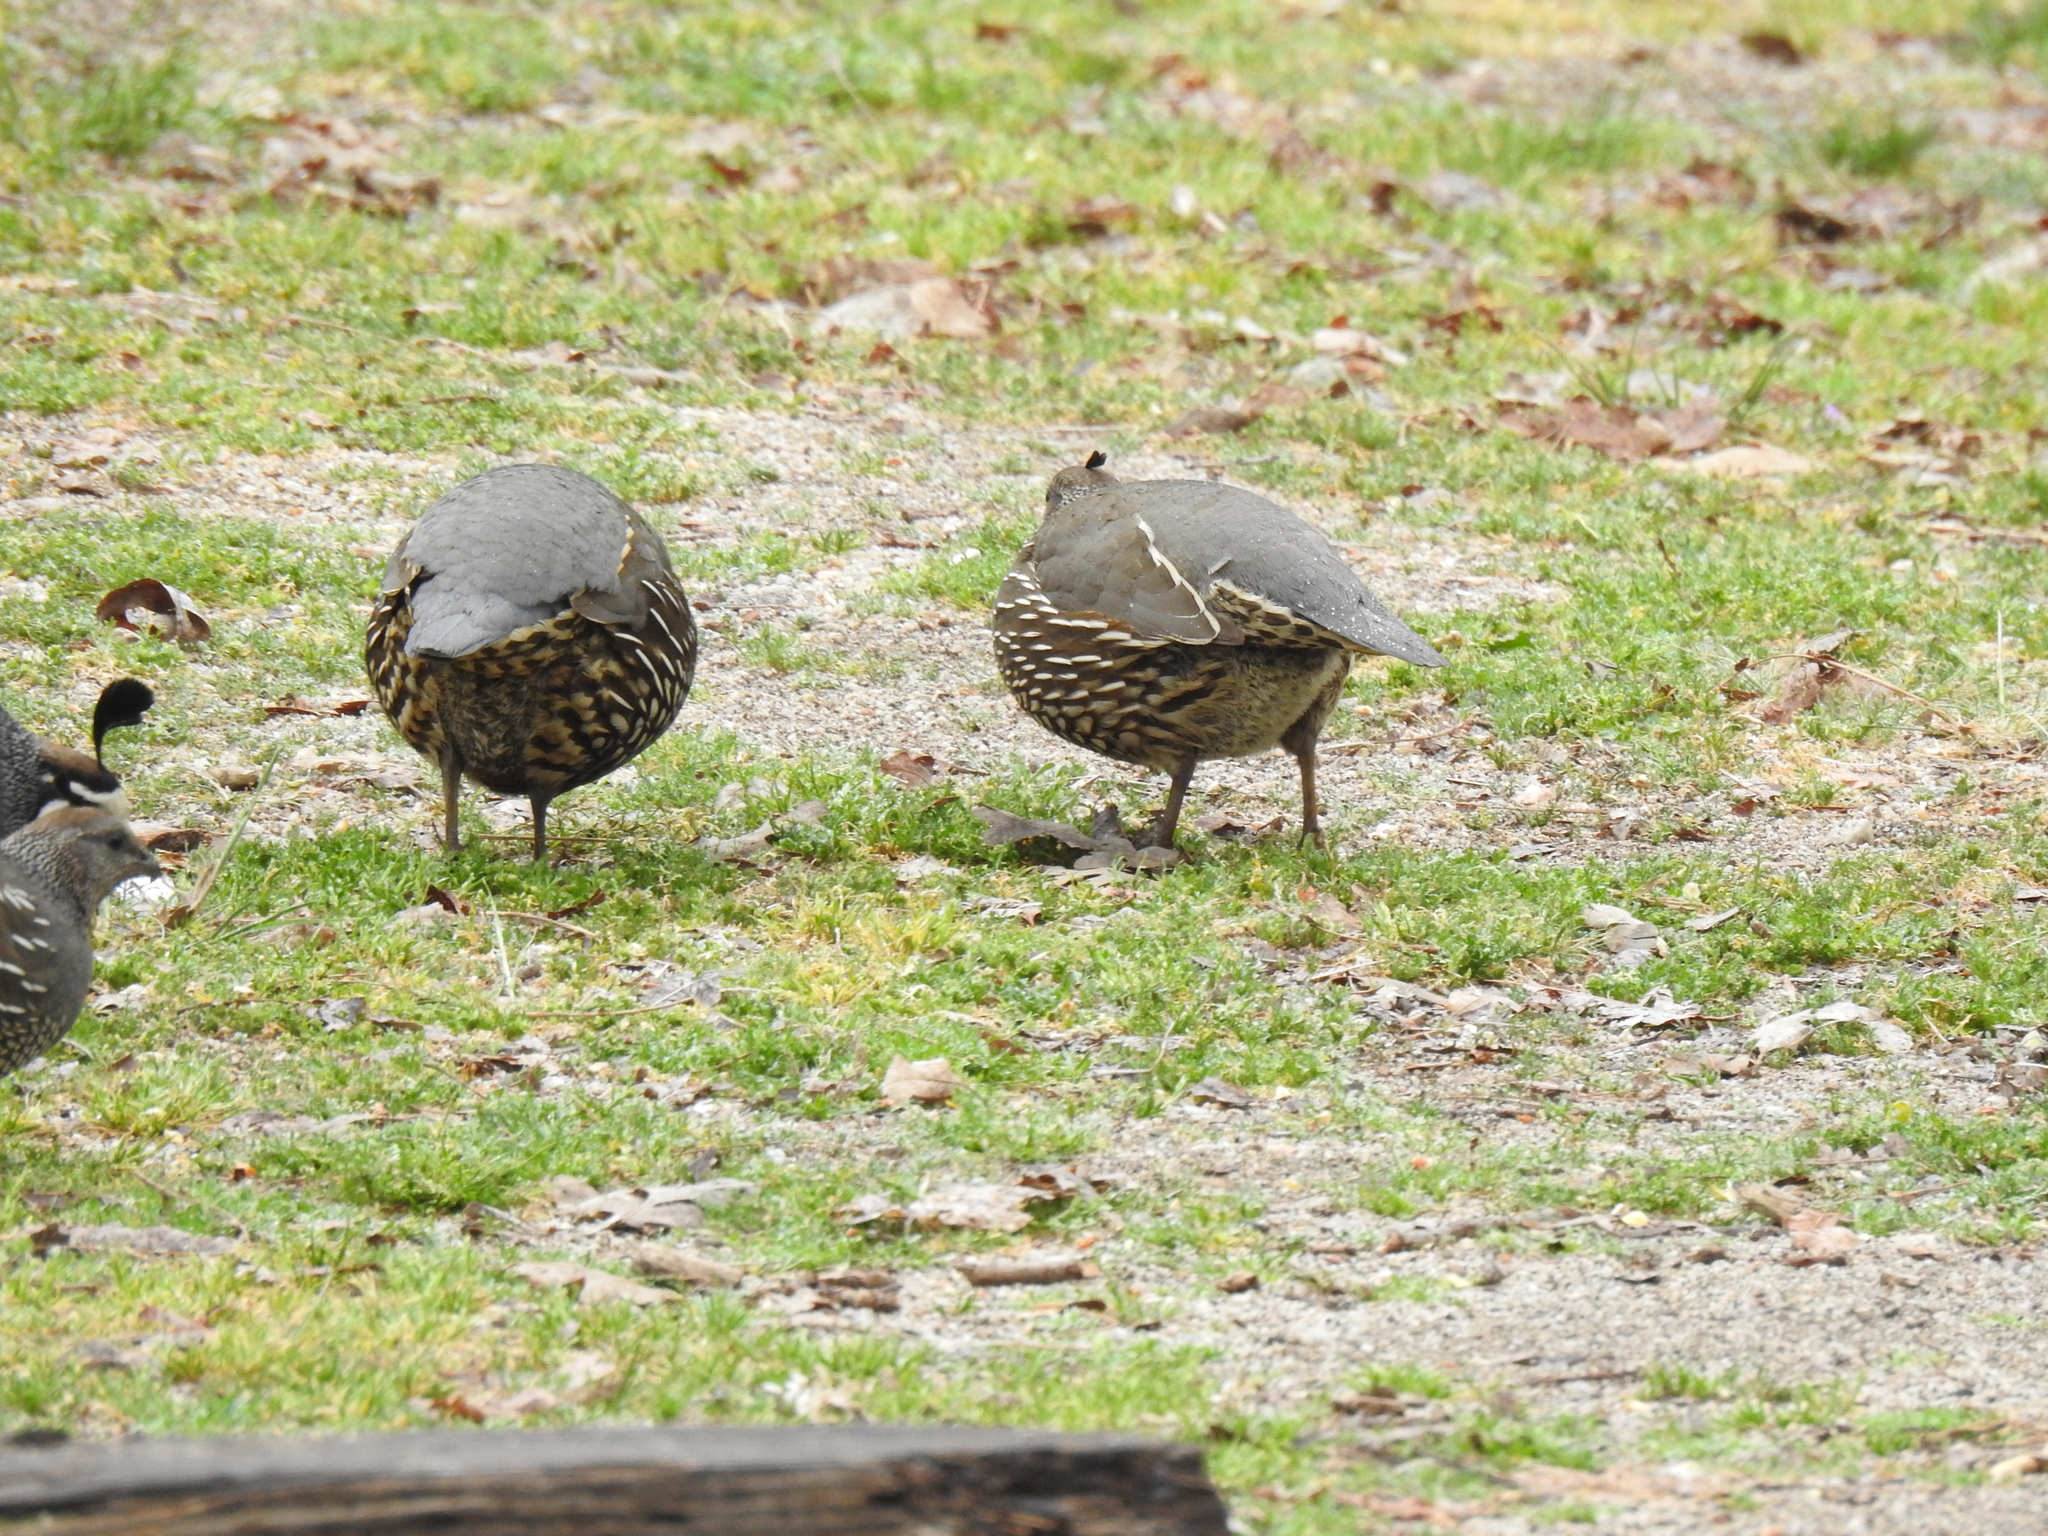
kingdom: Animalia
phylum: Chordata
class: Aves
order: Galliformes
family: Odontophoridae
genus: Callipepla
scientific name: Callipepla californica
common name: California quail
